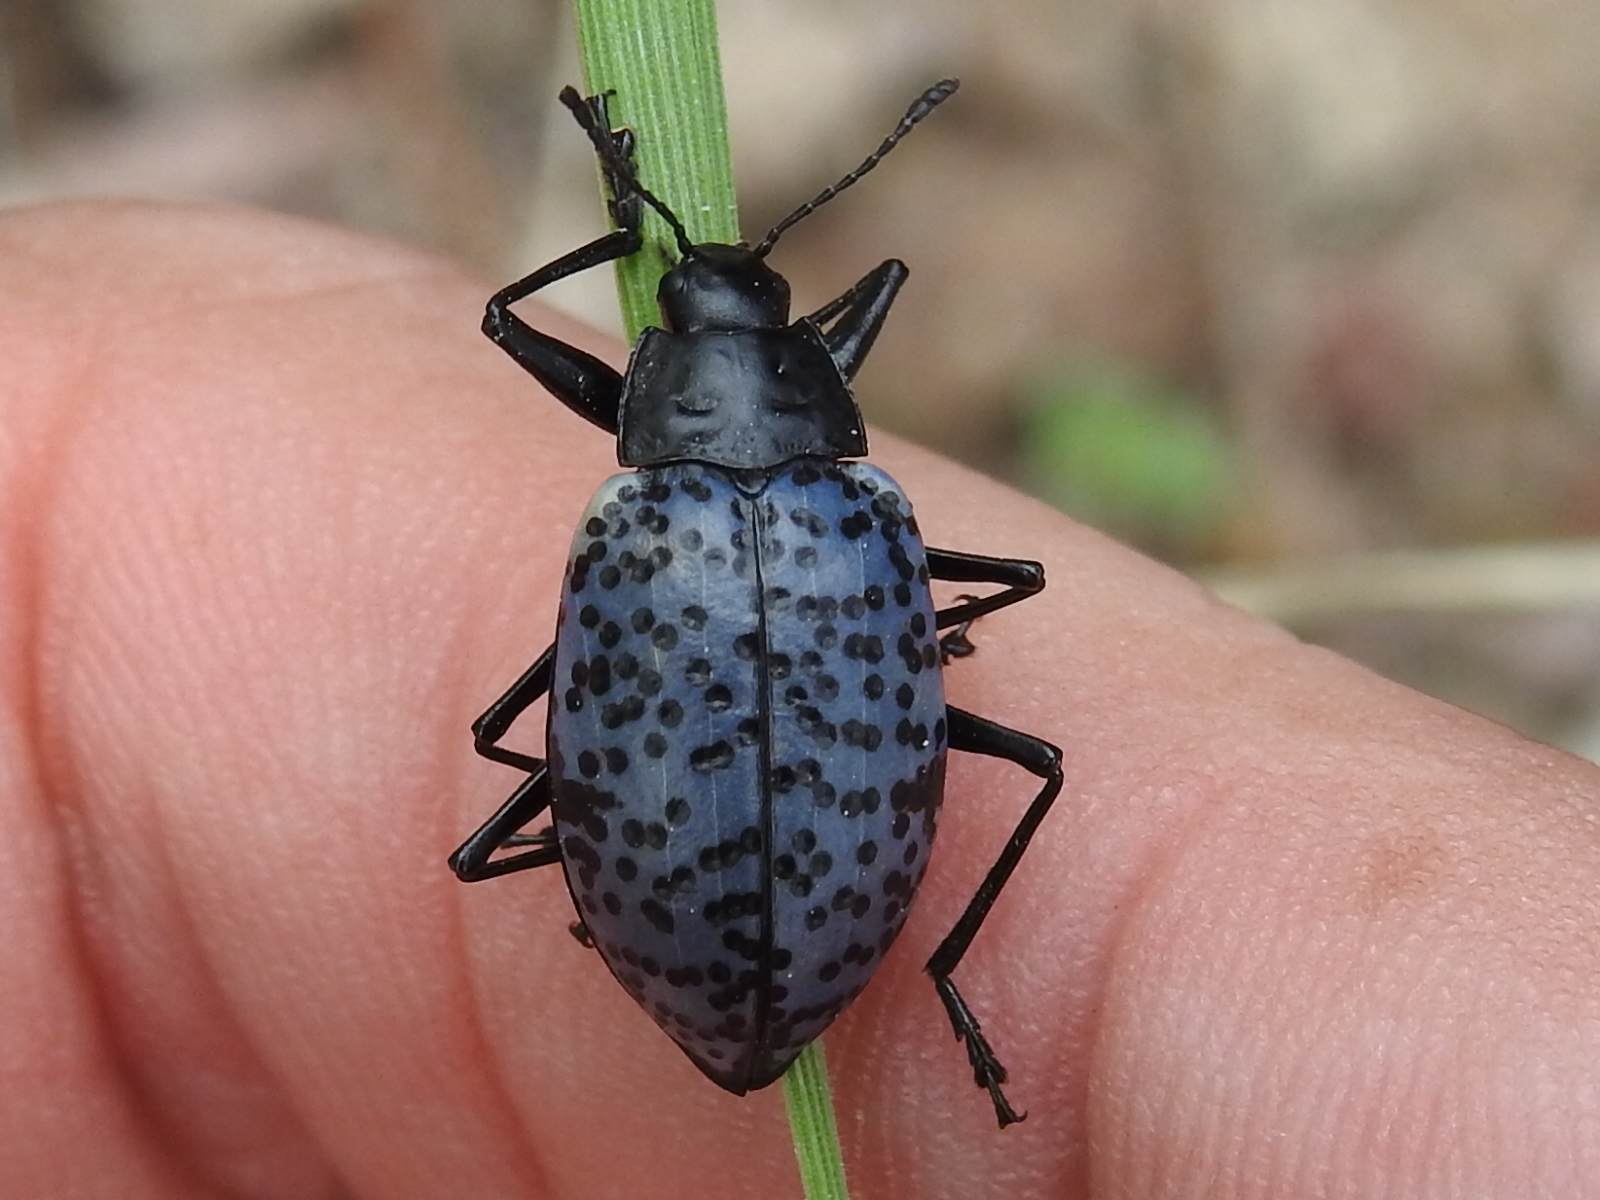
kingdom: Animalia
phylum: Arthropoda
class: Insecta
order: Coleoptera
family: Erotylidae
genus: Gibbifer
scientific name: Gibbifer californicus
